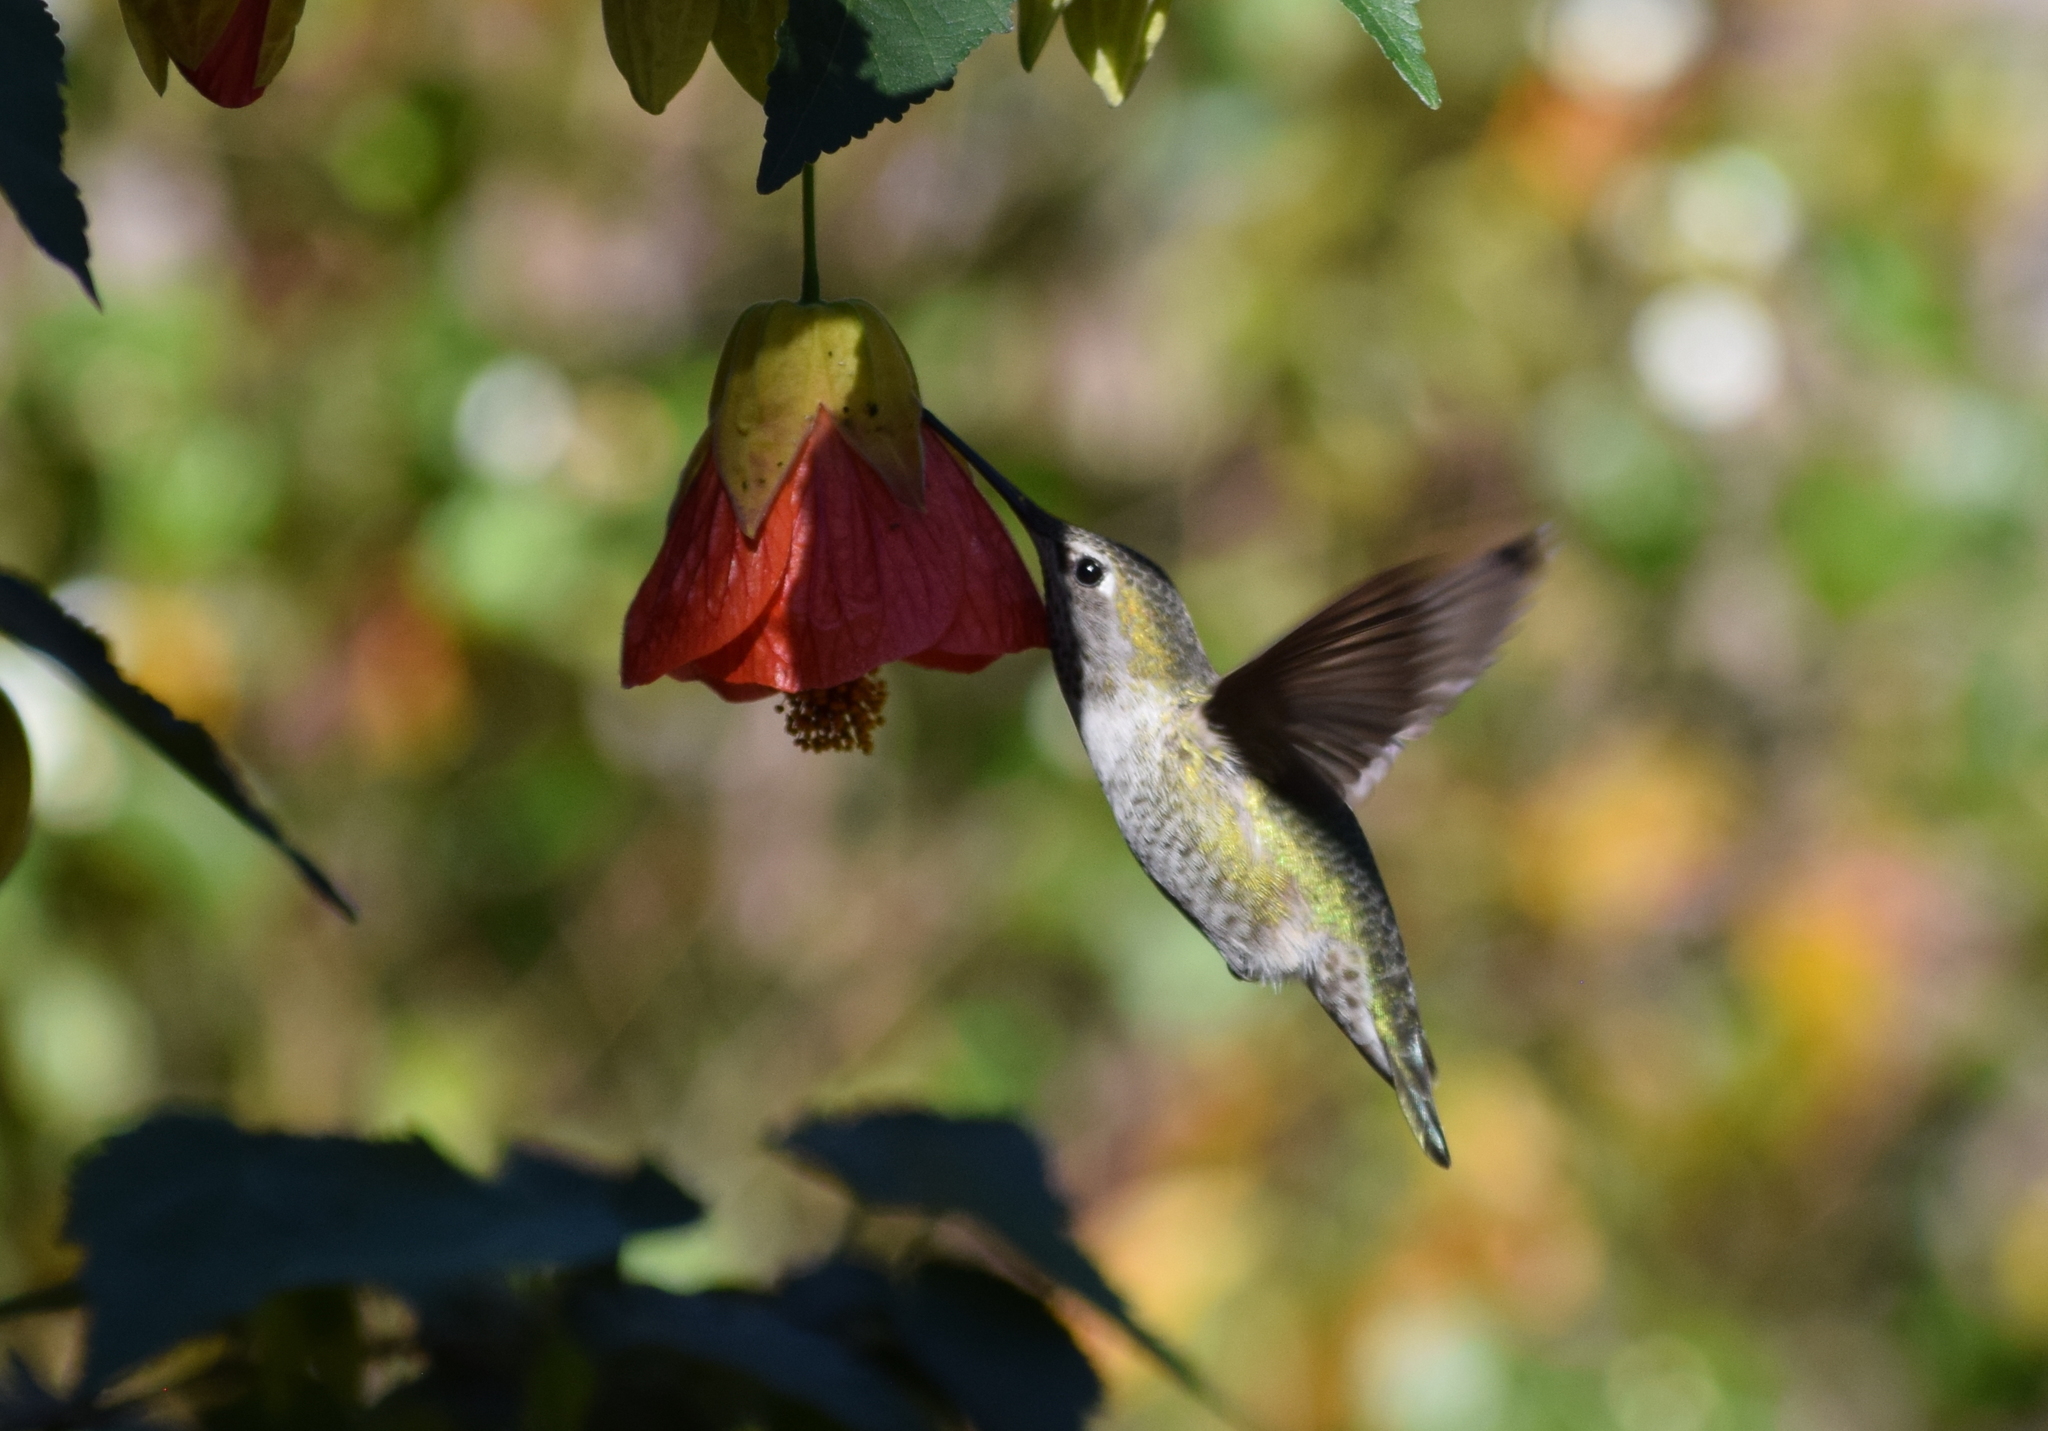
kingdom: Animalia
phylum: Chordata
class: Aves
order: Apodiformes
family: Trochilidae
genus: Calypte
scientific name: Calypte anna
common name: Anna's hummingbird
